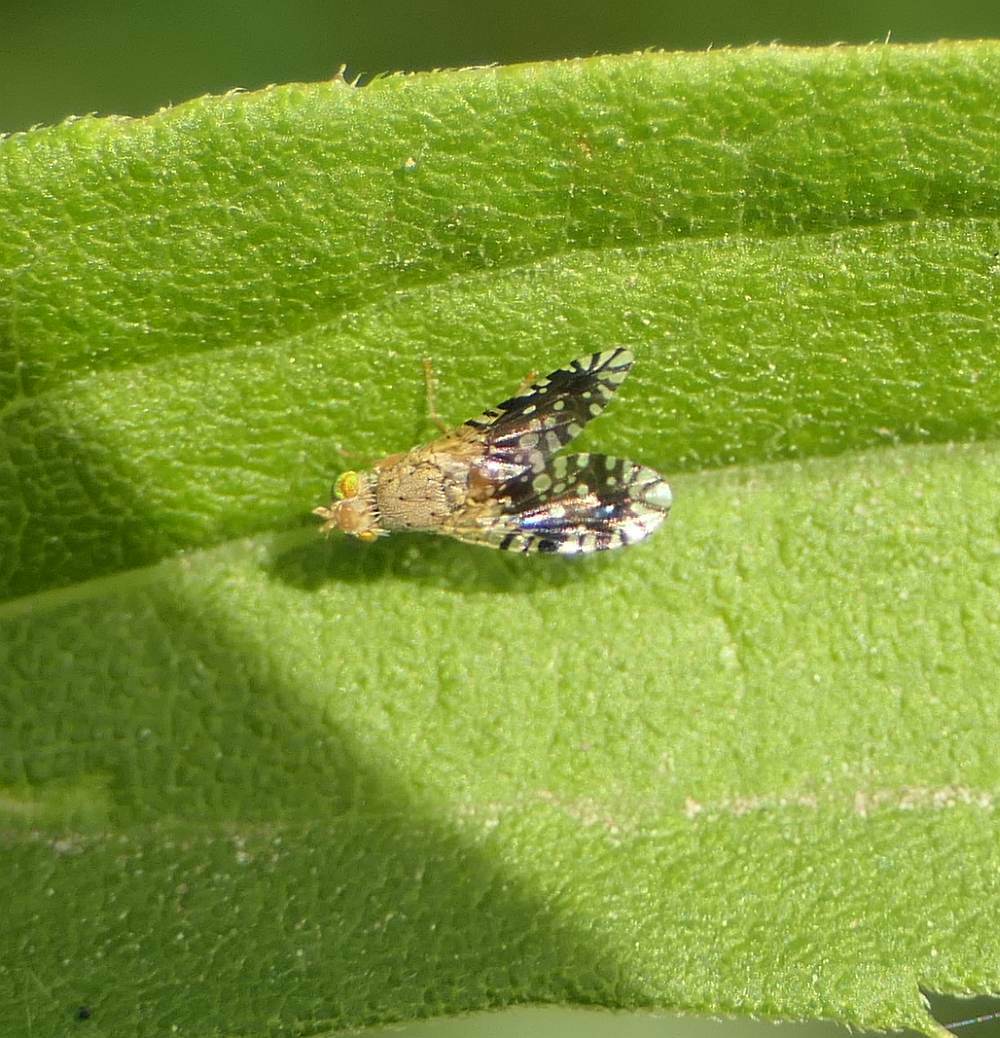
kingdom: Animalia
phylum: Arthropoda
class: Insecta
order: Diptera
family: Tephritidae
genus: Euaresta
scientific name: Euaresta bella
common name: Common ragweed fruit fly
